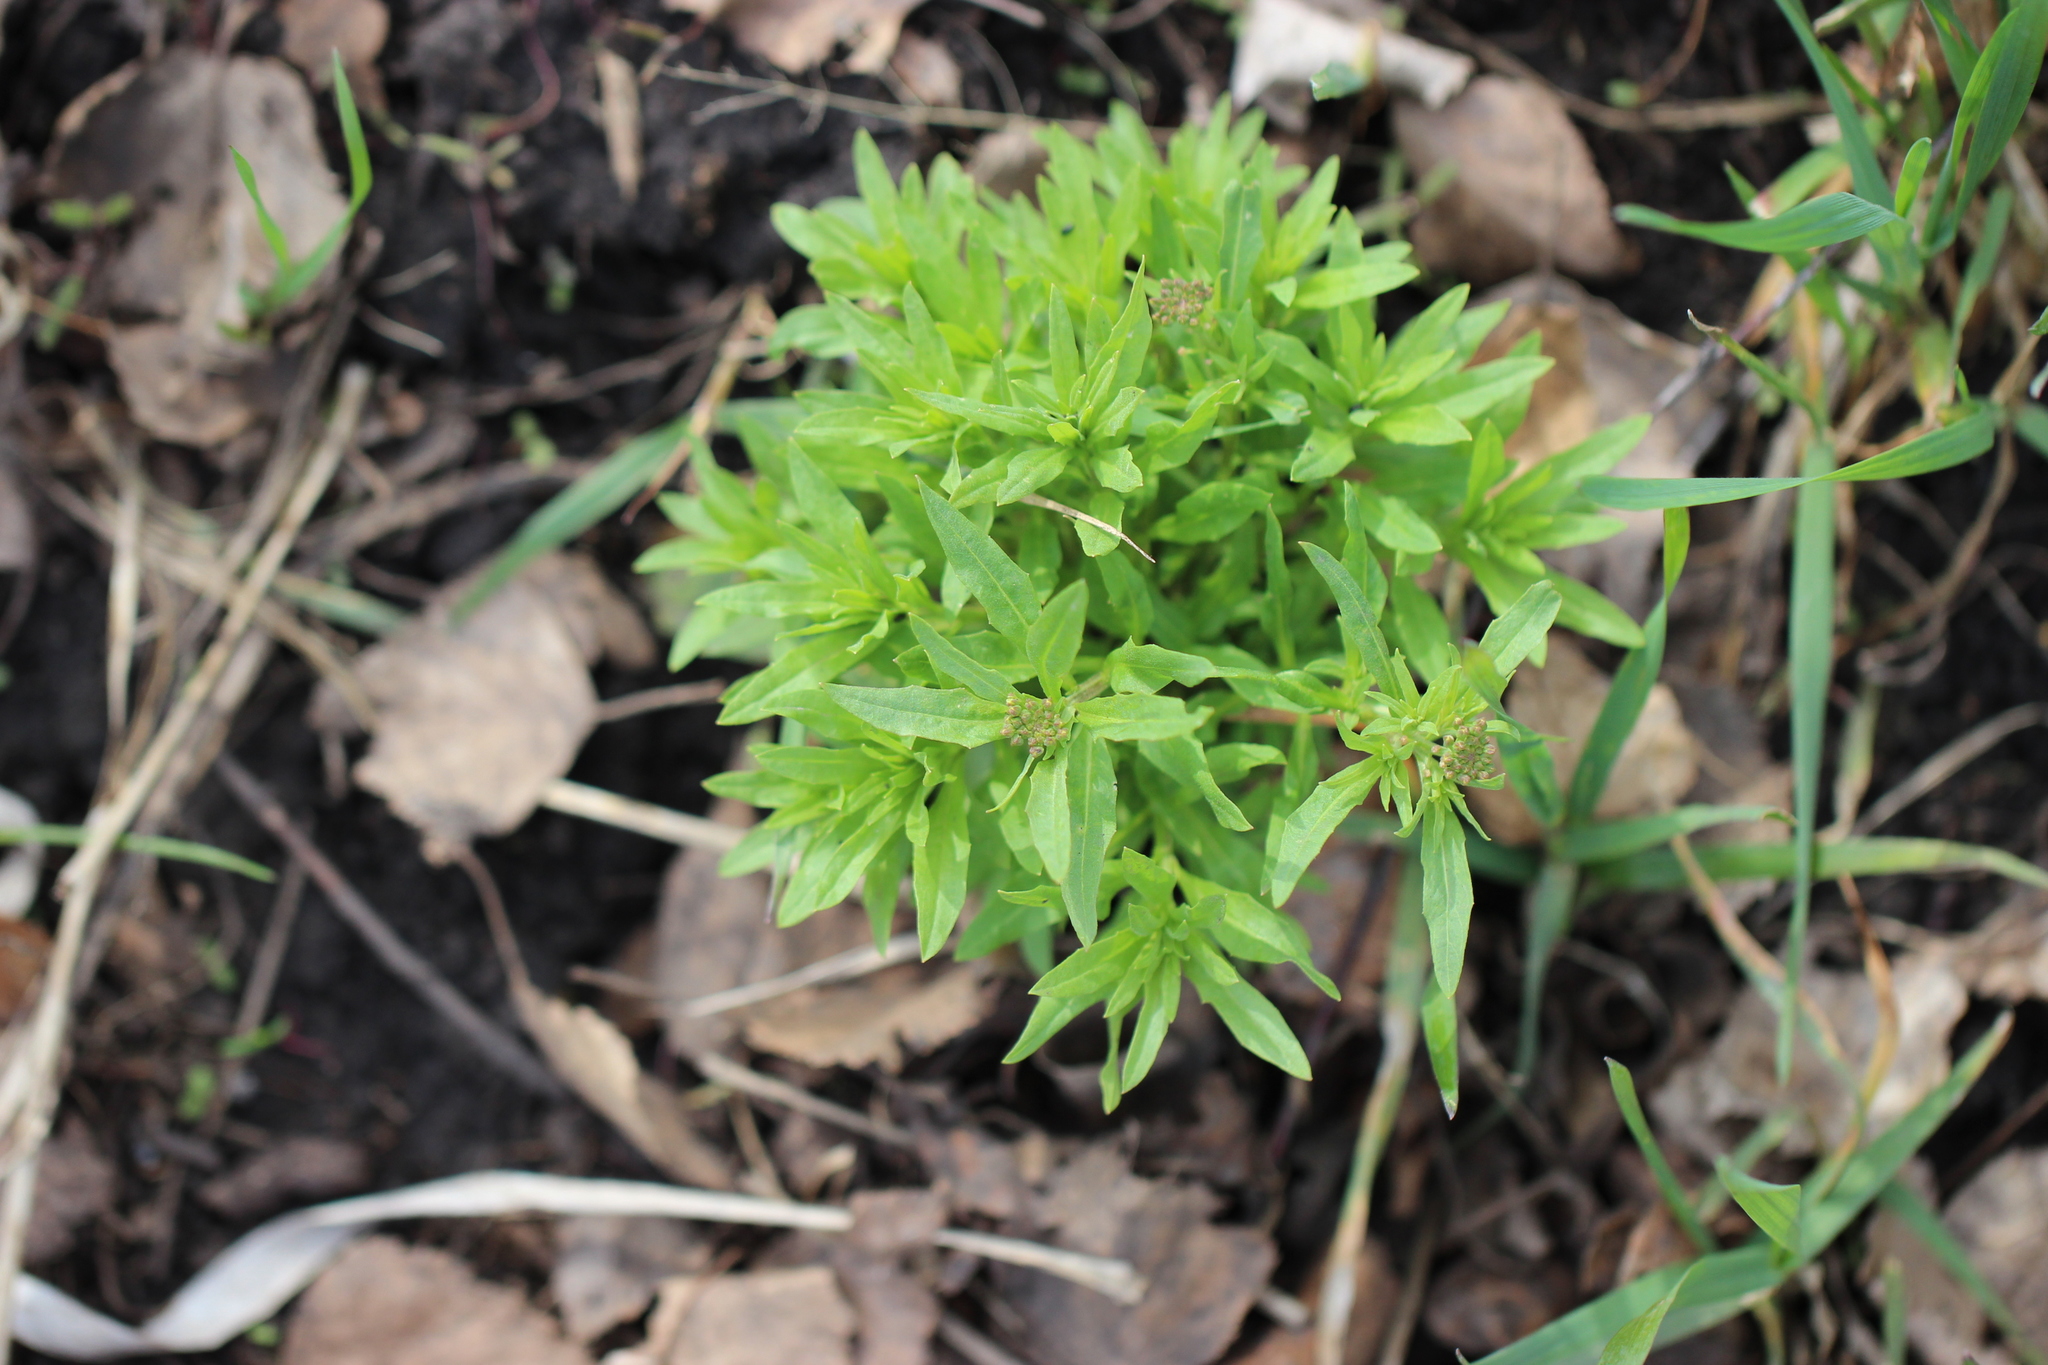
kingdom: Plantae
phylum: Tracheophyta
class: Magnoliopsida
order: Brassicales
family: Brassicaceae
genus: Erysimum
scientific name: Erysimum cheiranthoides
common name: Treacle mustard
